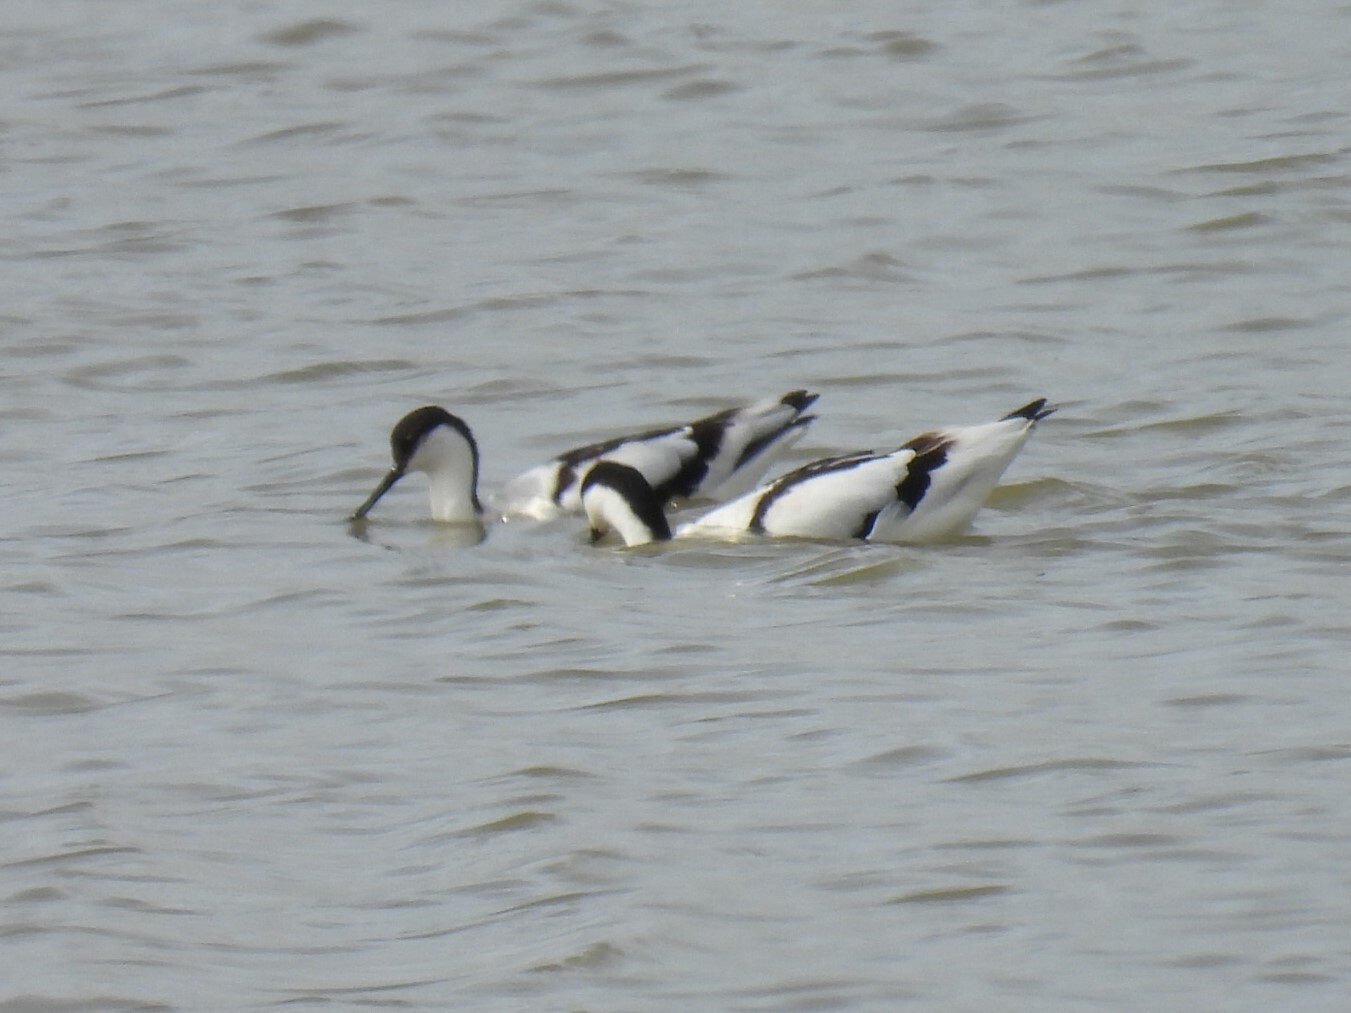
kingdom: Animalia
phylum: Chordata
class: Aves
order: Charadriiformes
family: Recurvirostridae
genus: Recurvirostra
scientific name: Recurvirostra avosetta
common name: Pied avocet
